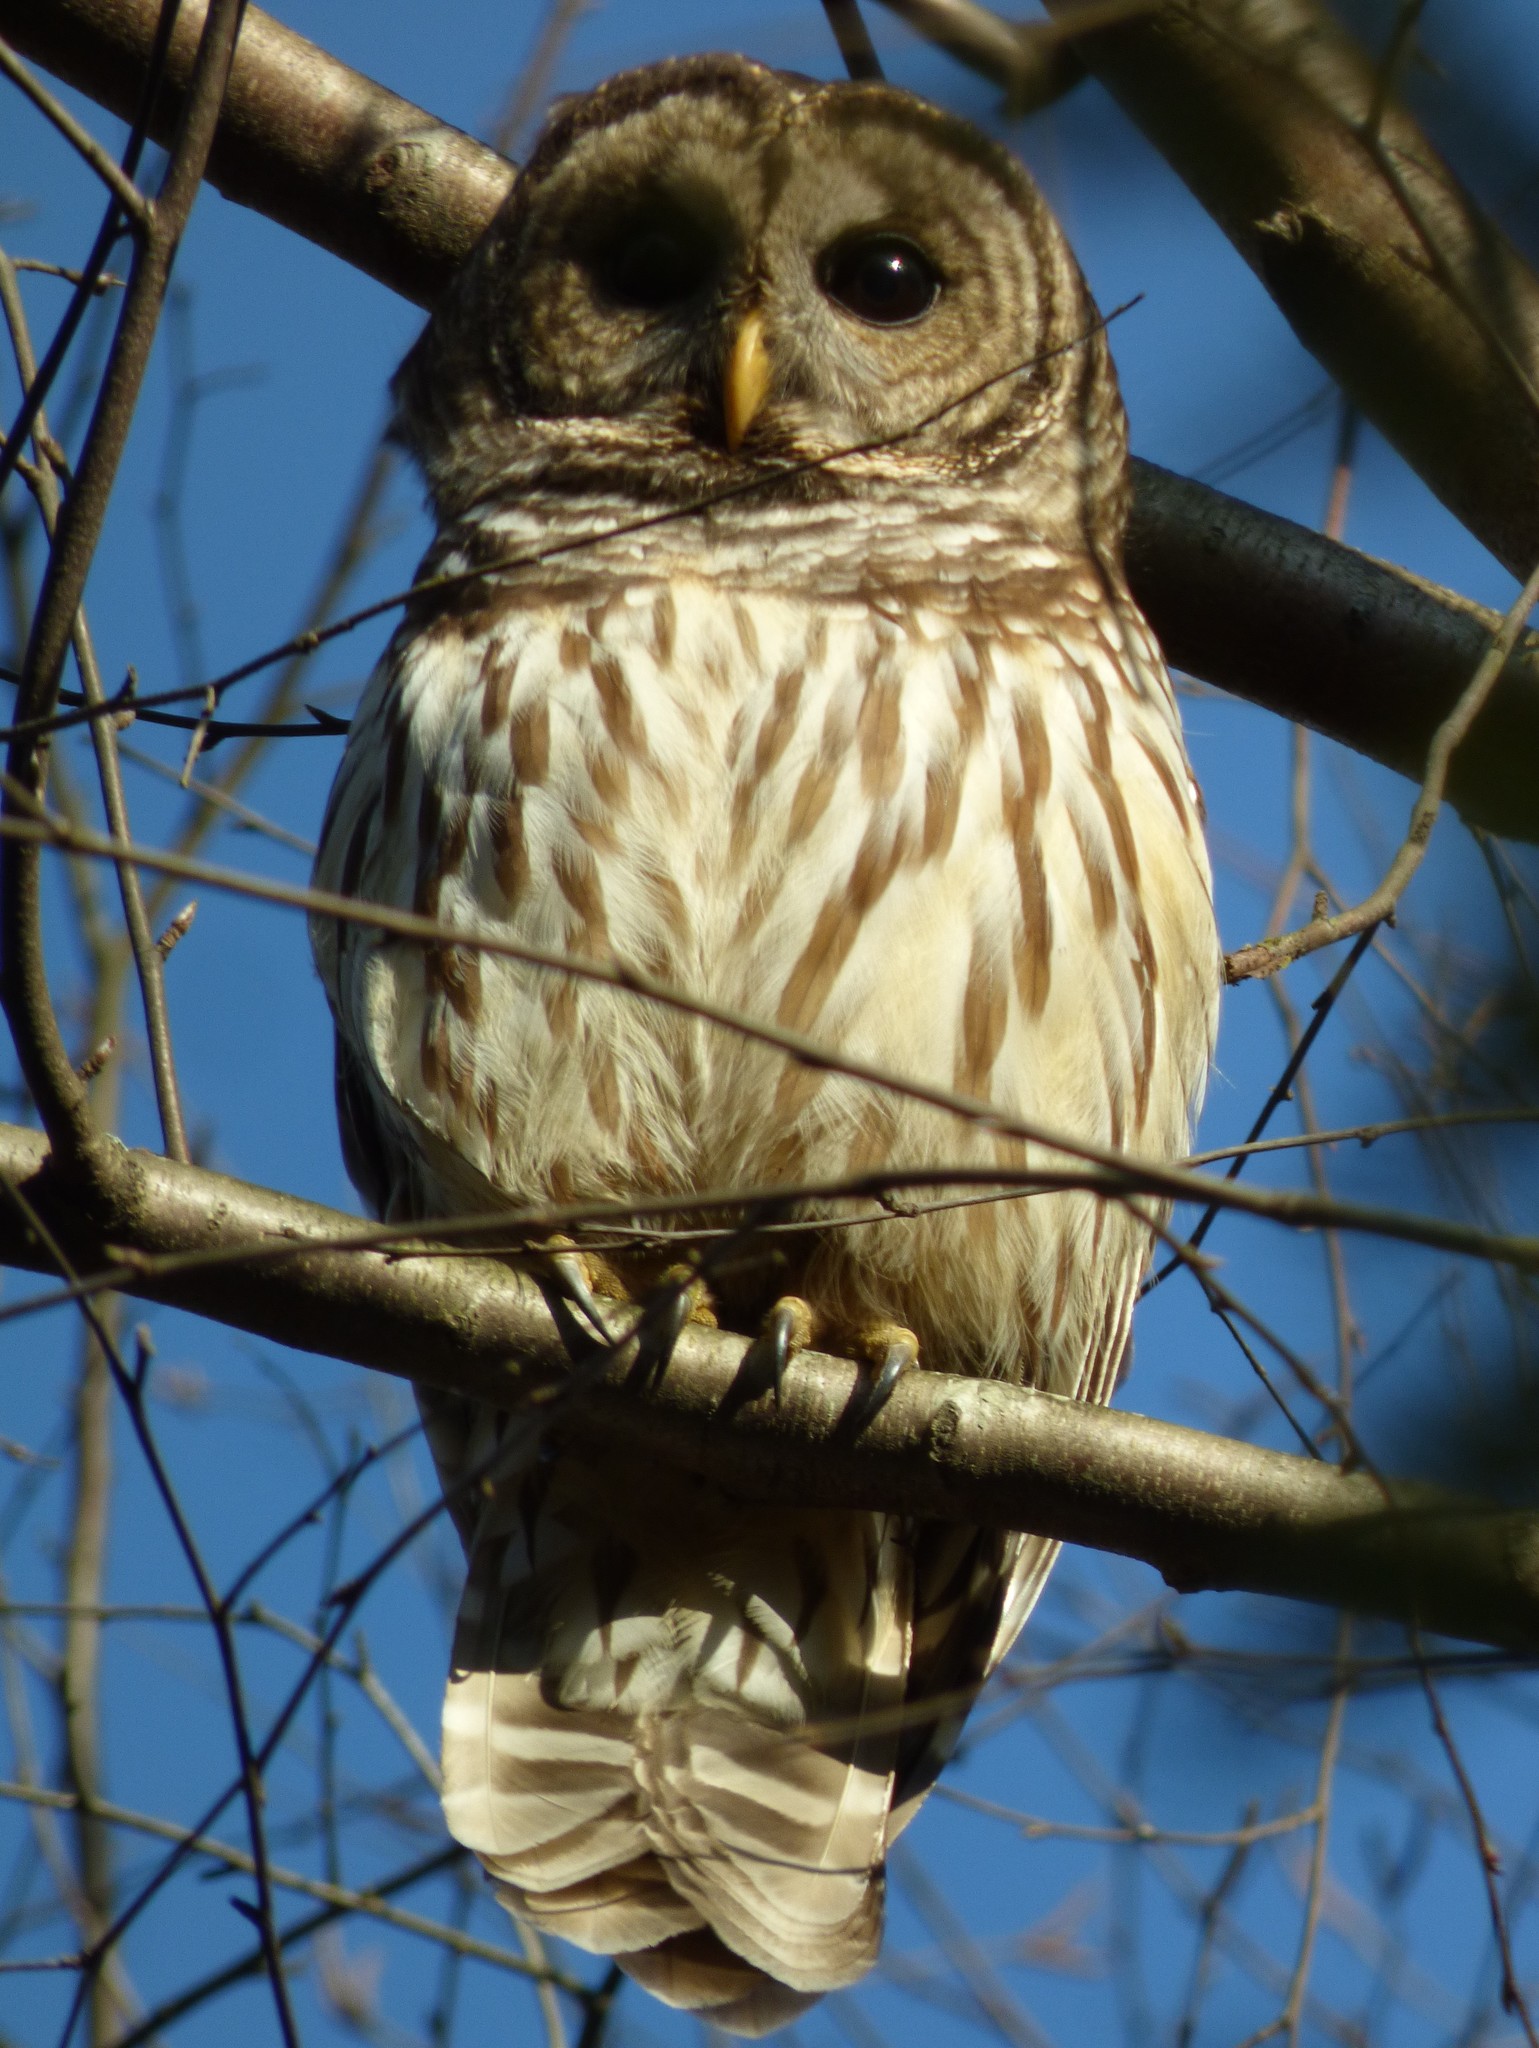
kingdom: Animalia
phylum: Chordata
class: Aves
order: Strigiformes
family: Strigidae
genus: Strix
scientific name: Strix varia
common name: Barred owl
